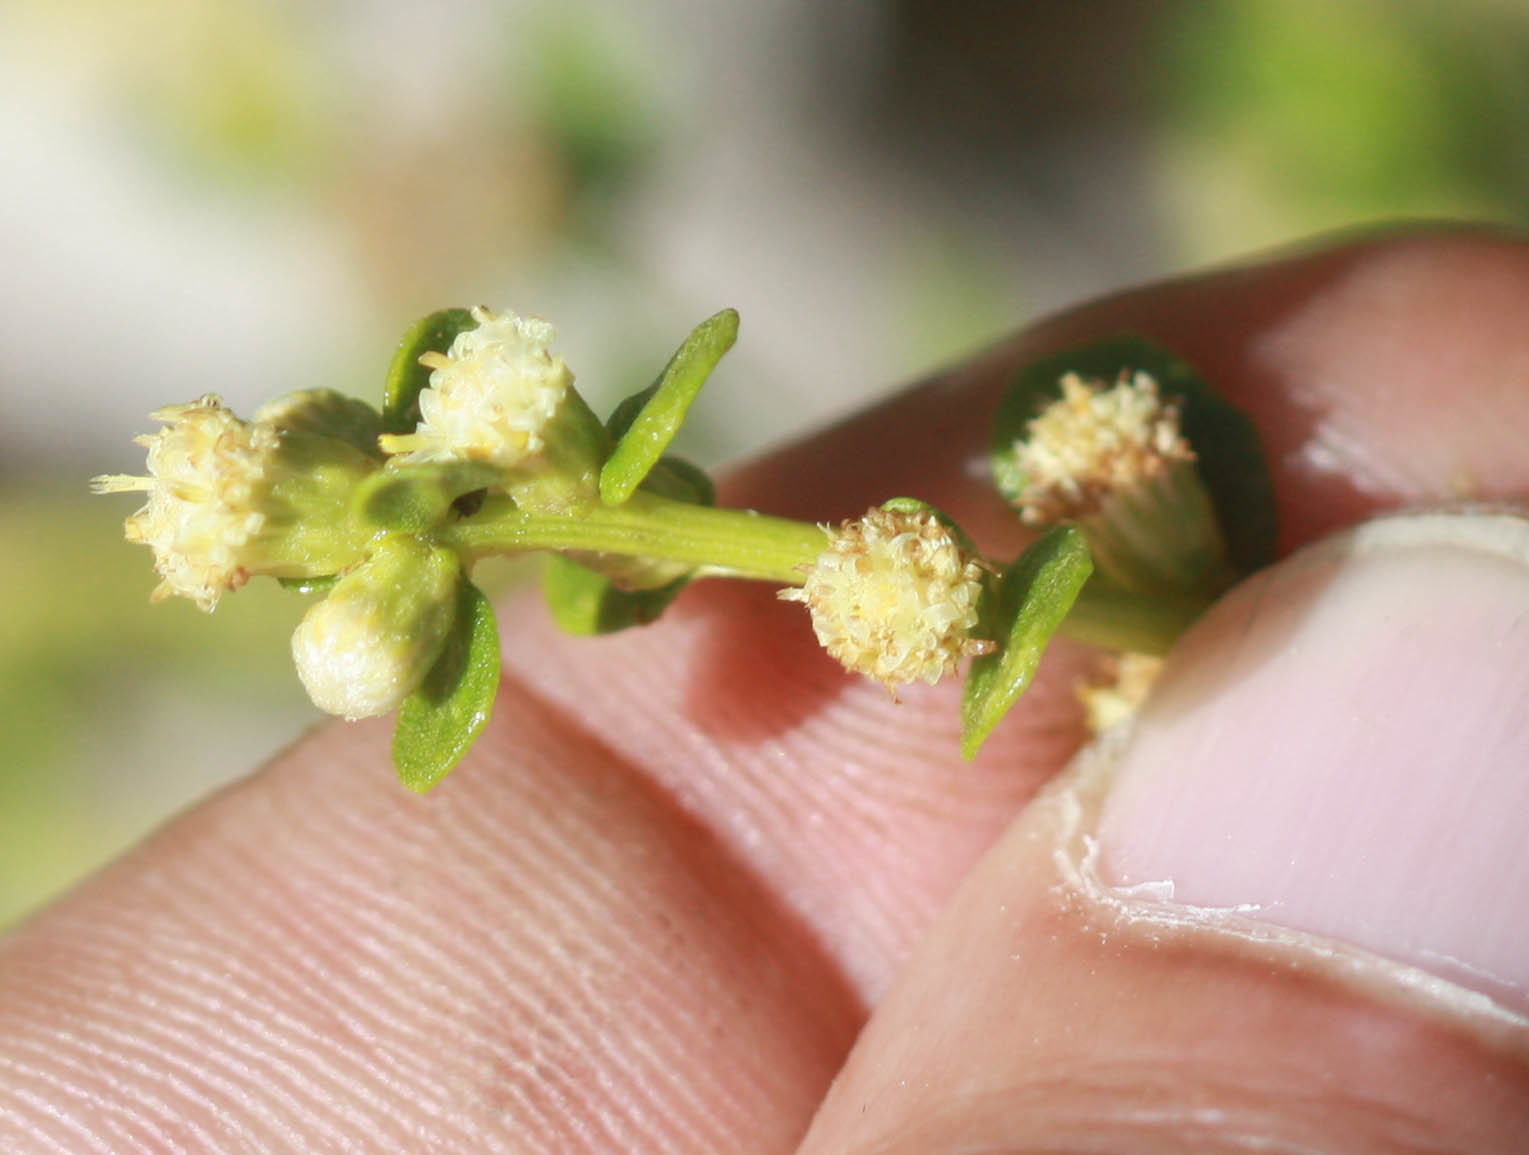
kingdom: Plantae
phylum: Tracheophyta
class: Magnoliopsida
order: Asterales
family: Asteraceae
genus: Baccharis
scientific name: Baccharis pilularis
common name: Coyotebrush
